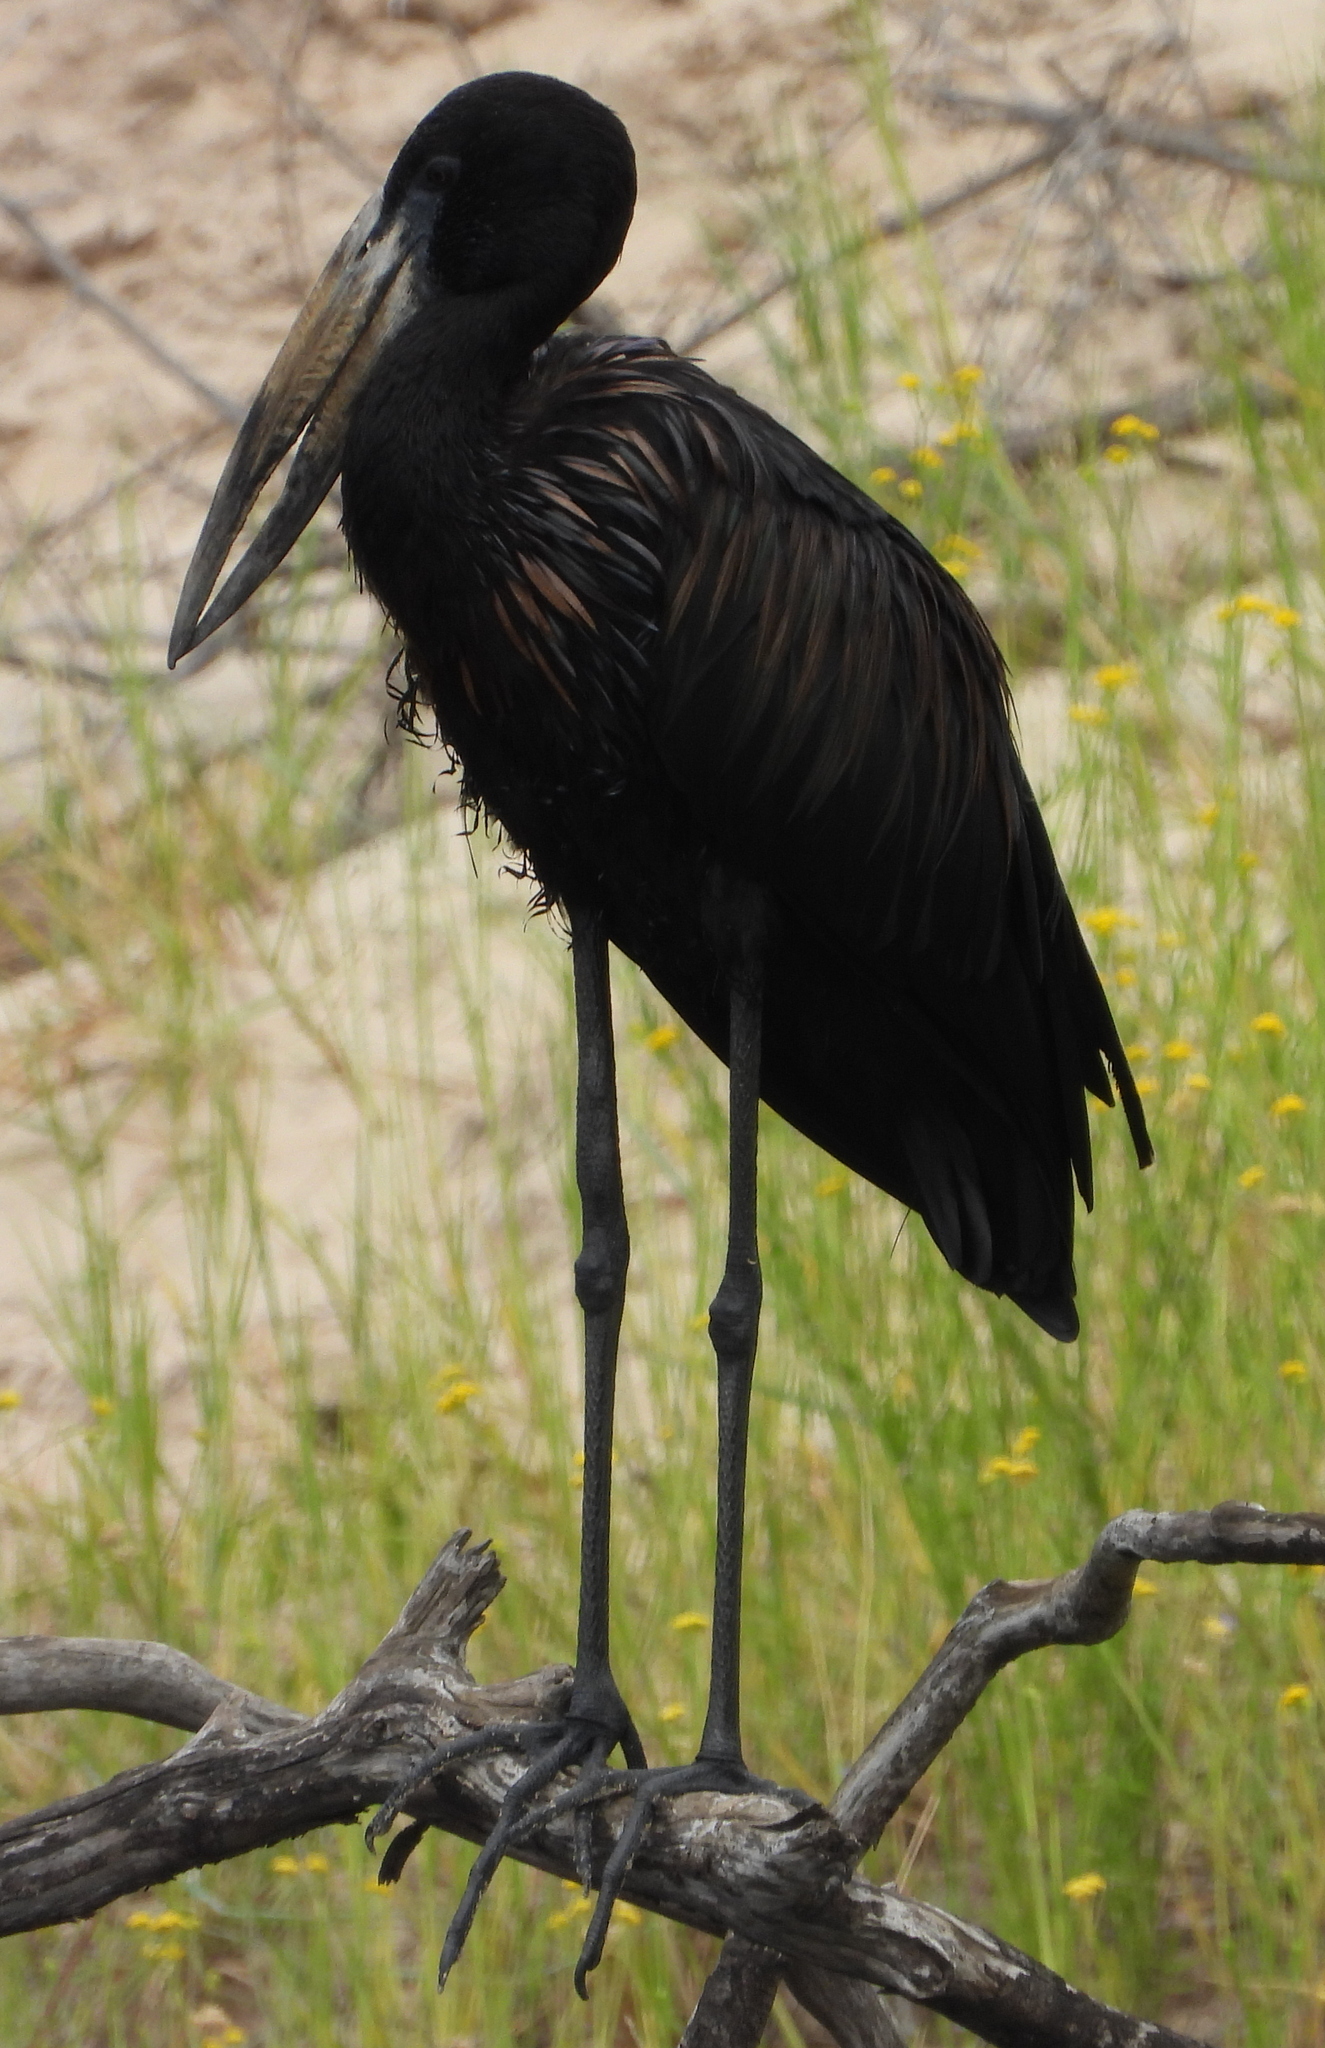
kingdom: Animalia
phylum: Chordata
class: Aves
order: Ciconiiformes
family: Ciconiidae
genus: Anastomus
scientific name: Anastomus lamelligerus
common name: African openbill
